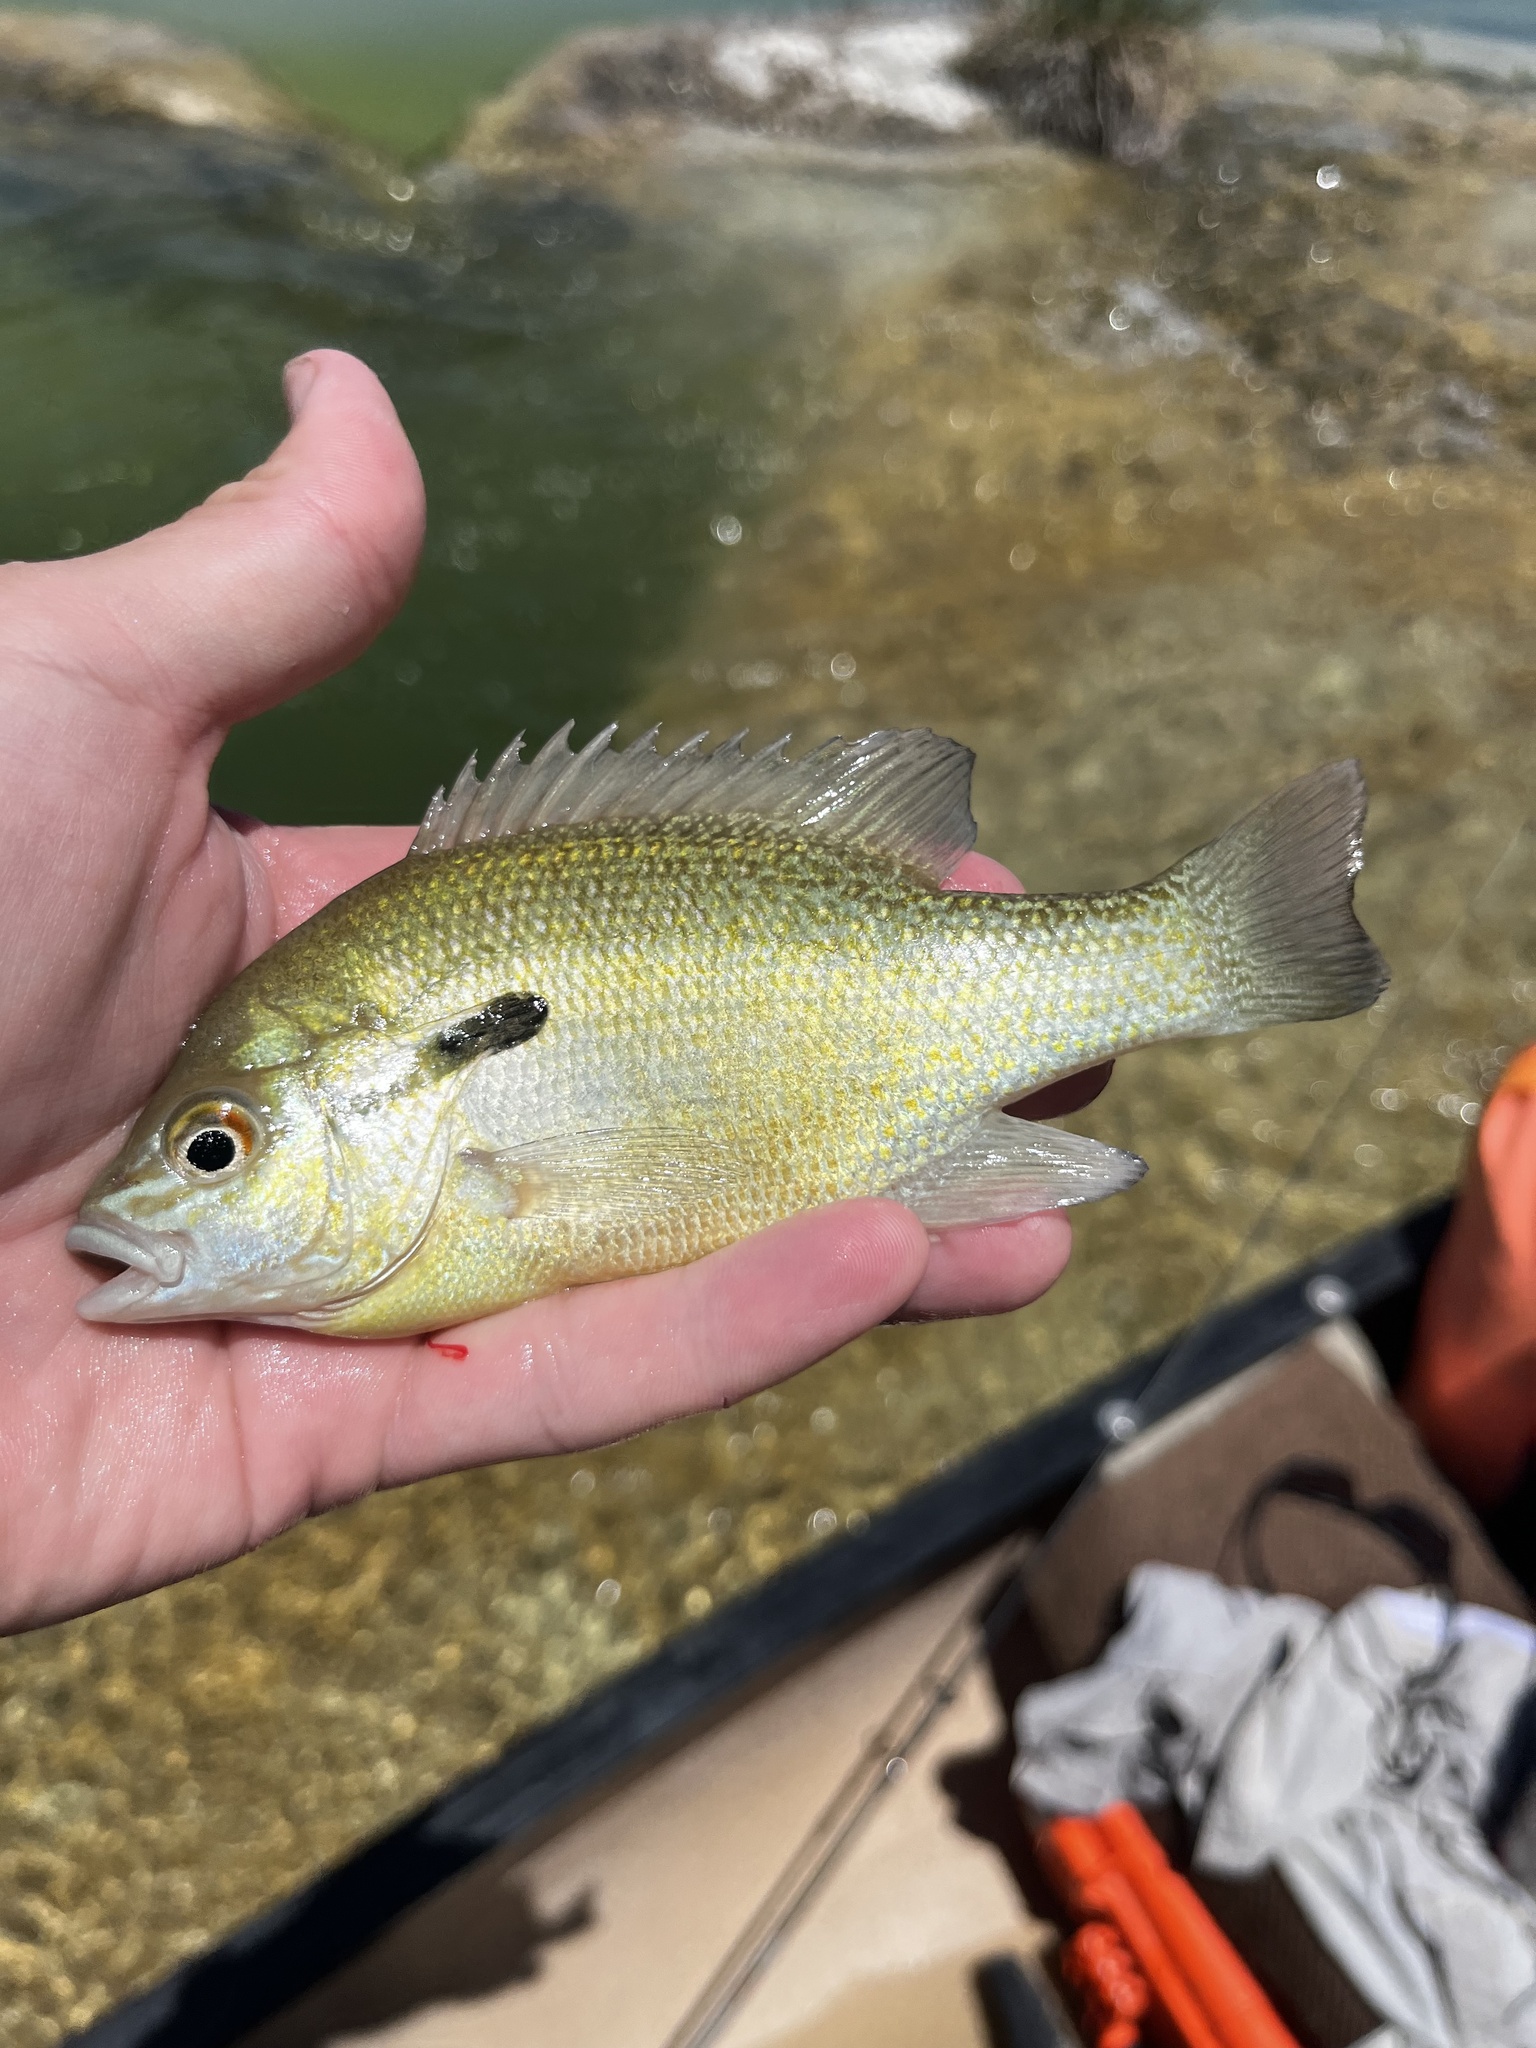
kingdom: Animalia
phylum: Chordata
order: Perciformes
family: Centrarchidae
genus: Lepomis
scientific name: Lepomis auritus
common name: Redbreast sunfish
